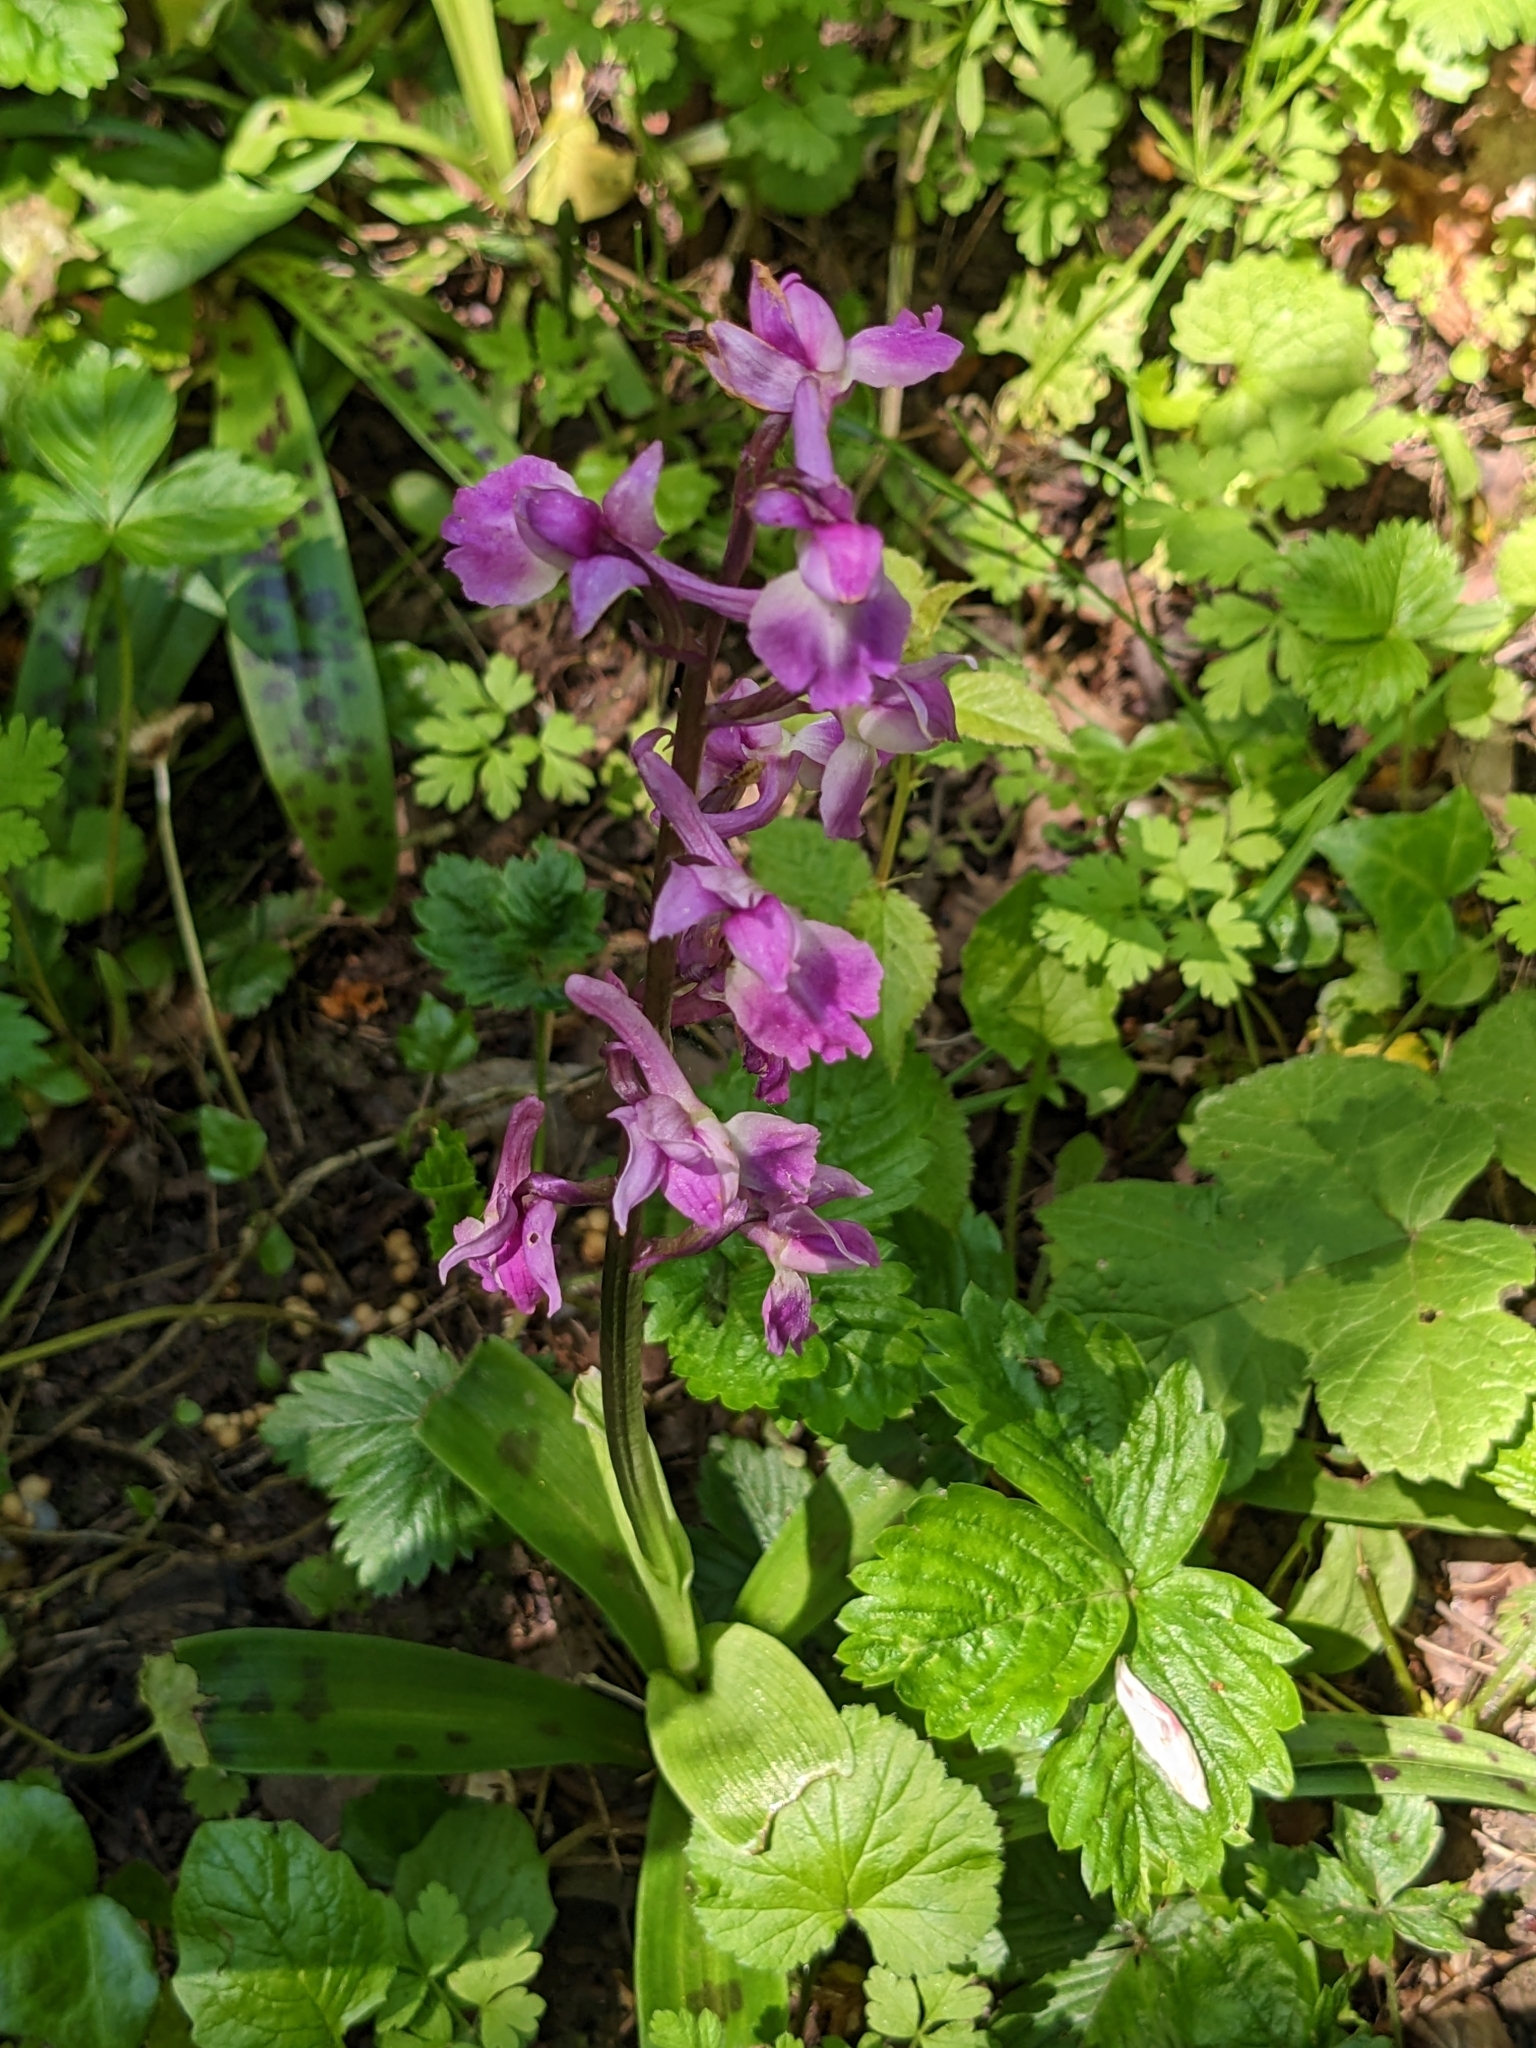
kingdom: Plantae
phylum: Tracheophyta
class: Liliopsida
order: Asparagales
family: Orchidaceae
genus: Orchis
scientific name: Orchis mascula
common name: Early-purple orchid
